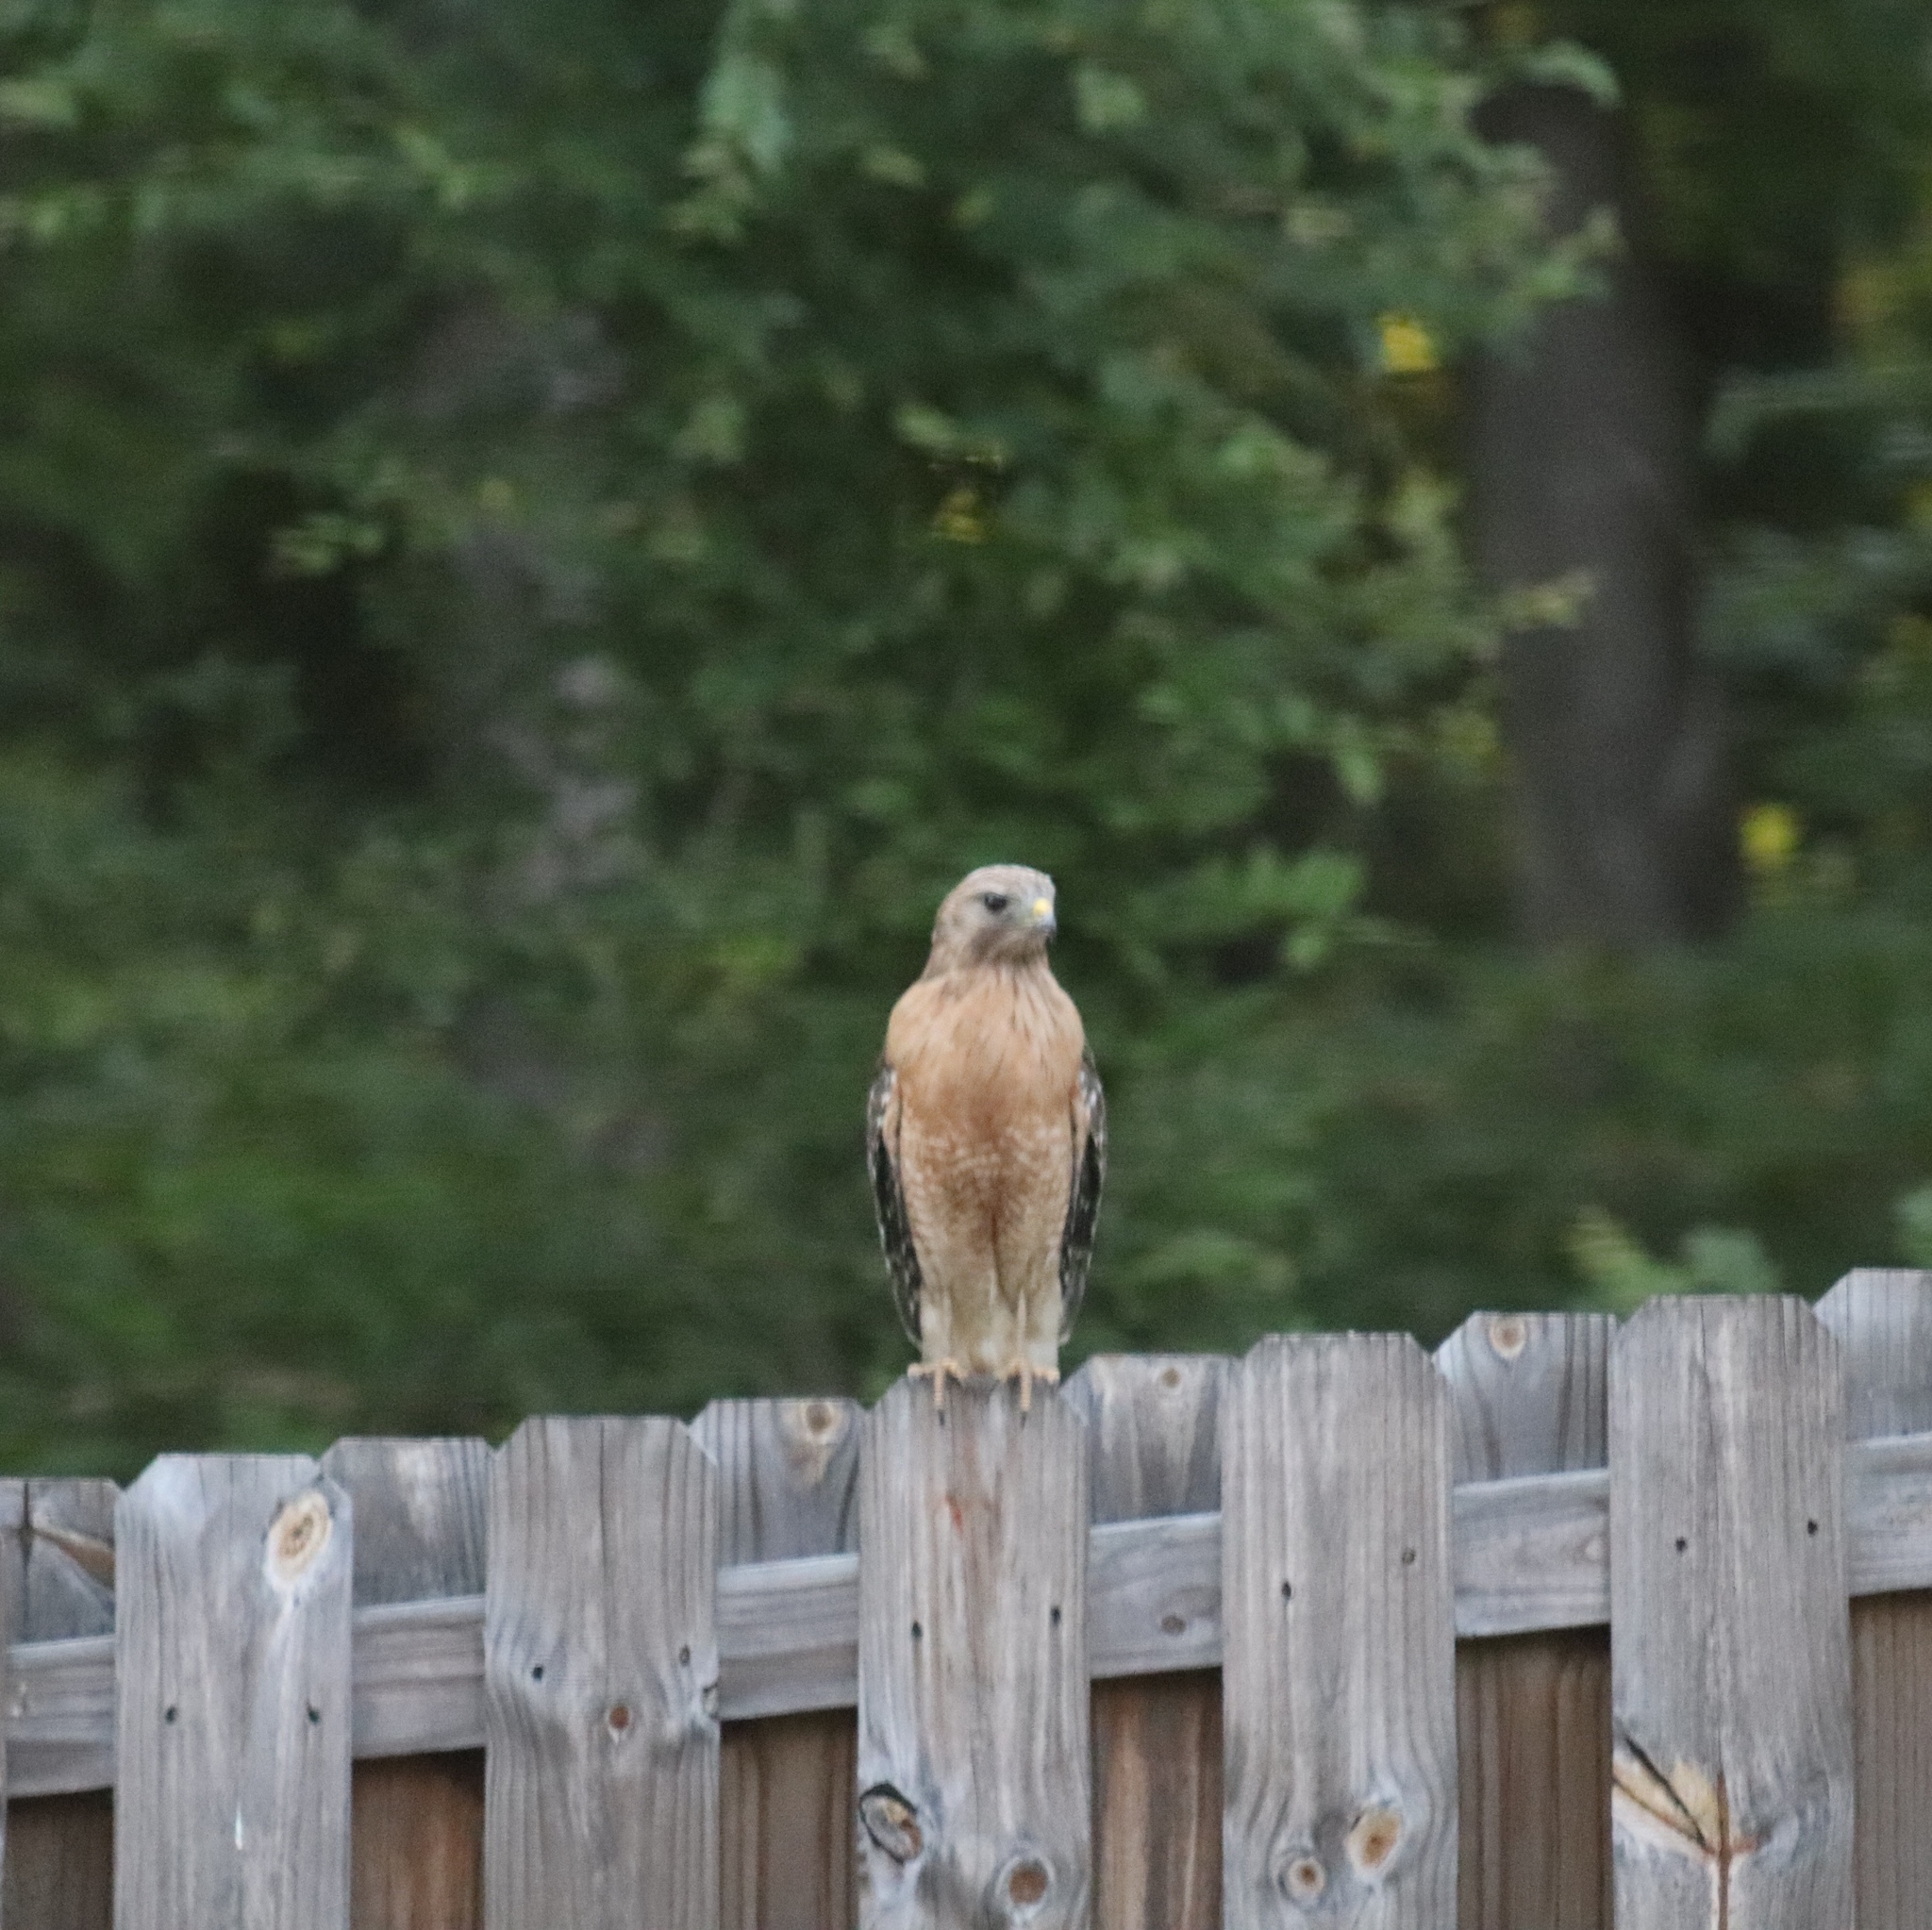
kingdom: Animalia
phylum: Chordata
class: Aves
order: Accipitriformes
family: Accipitridae
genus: Buteo
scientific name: Buteo lineatus
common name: Red-shouldered hawk
